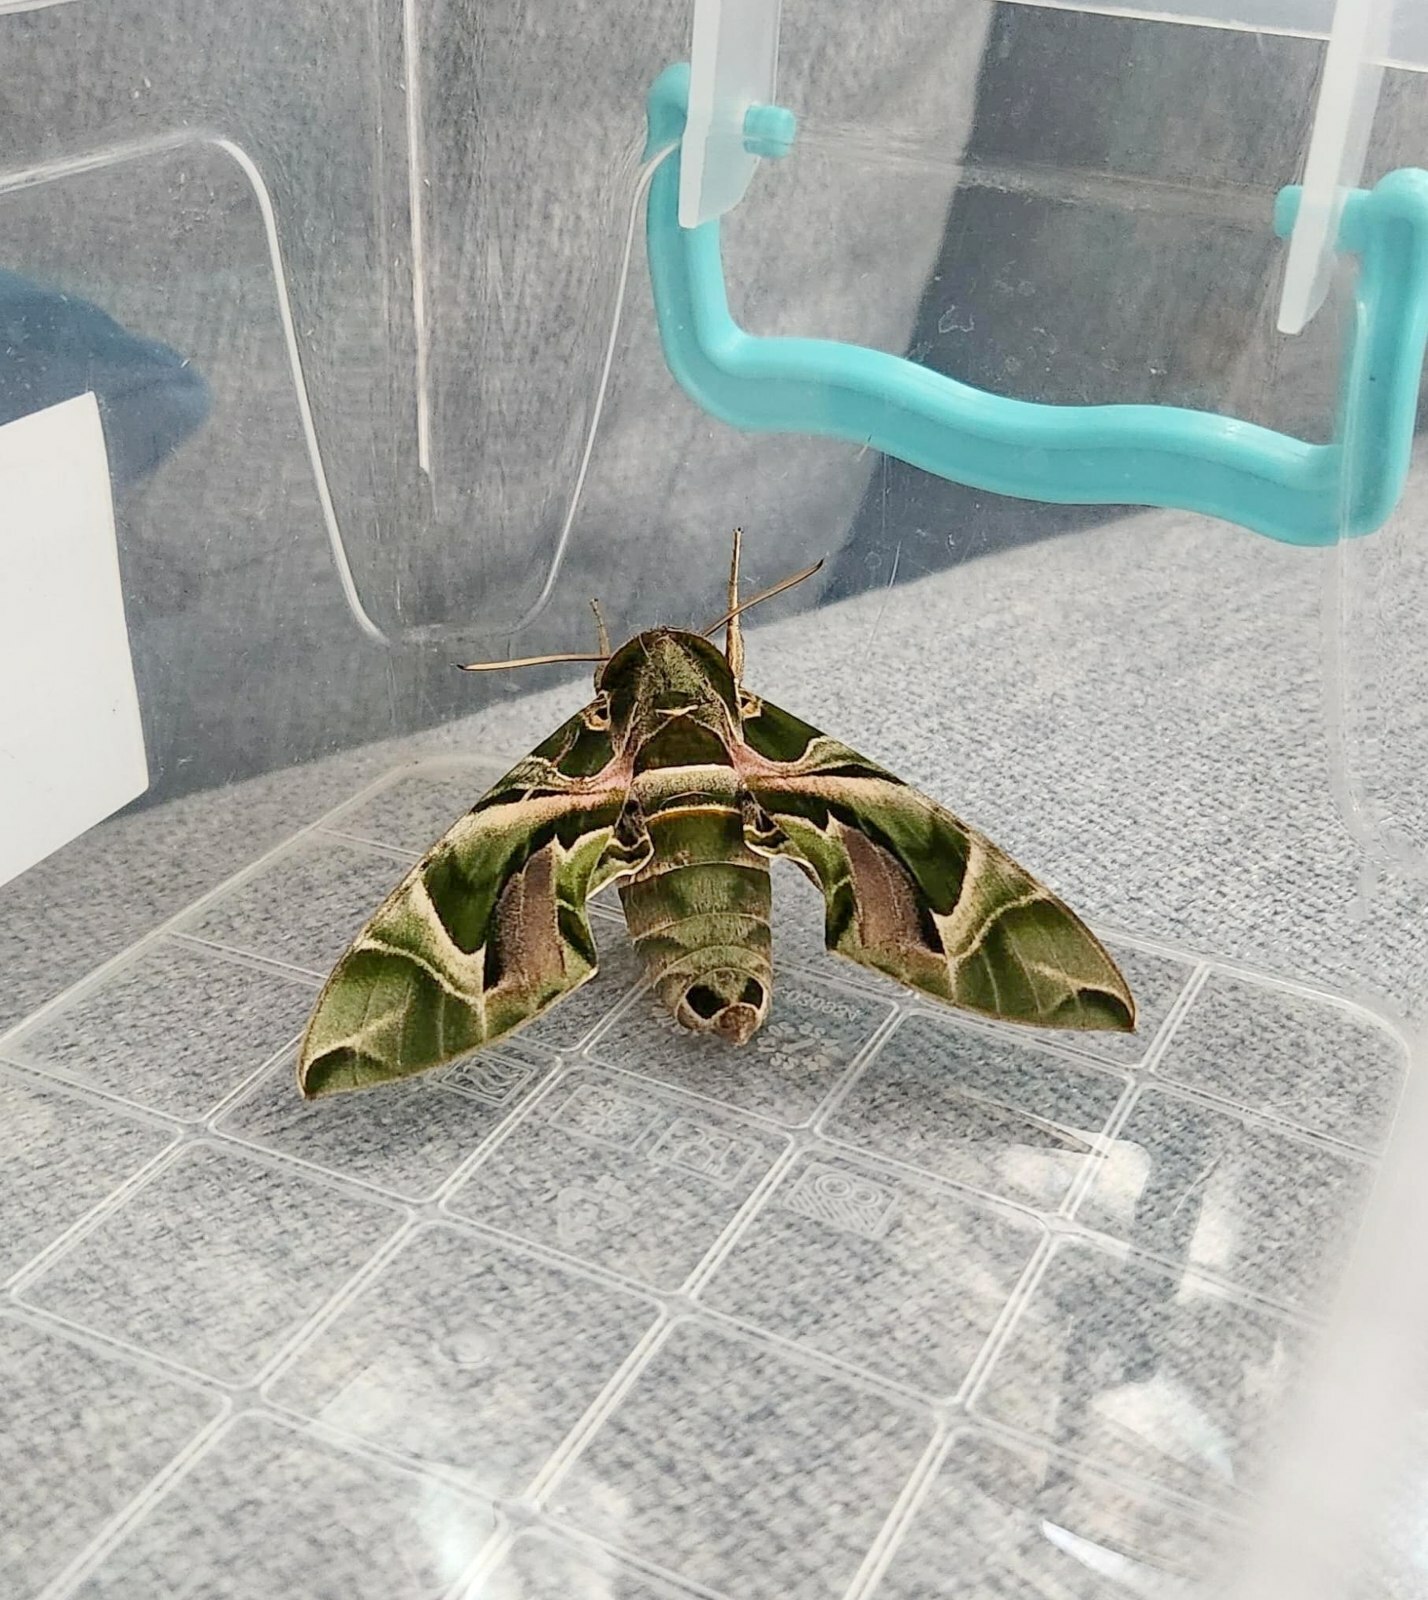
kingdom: Animalia
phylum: Arthropoda
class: Insecta
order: Lepidoptera
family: Sphingidae
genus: Daphnis
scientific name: Daphnis nerii
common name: Oleander hawk-moth
